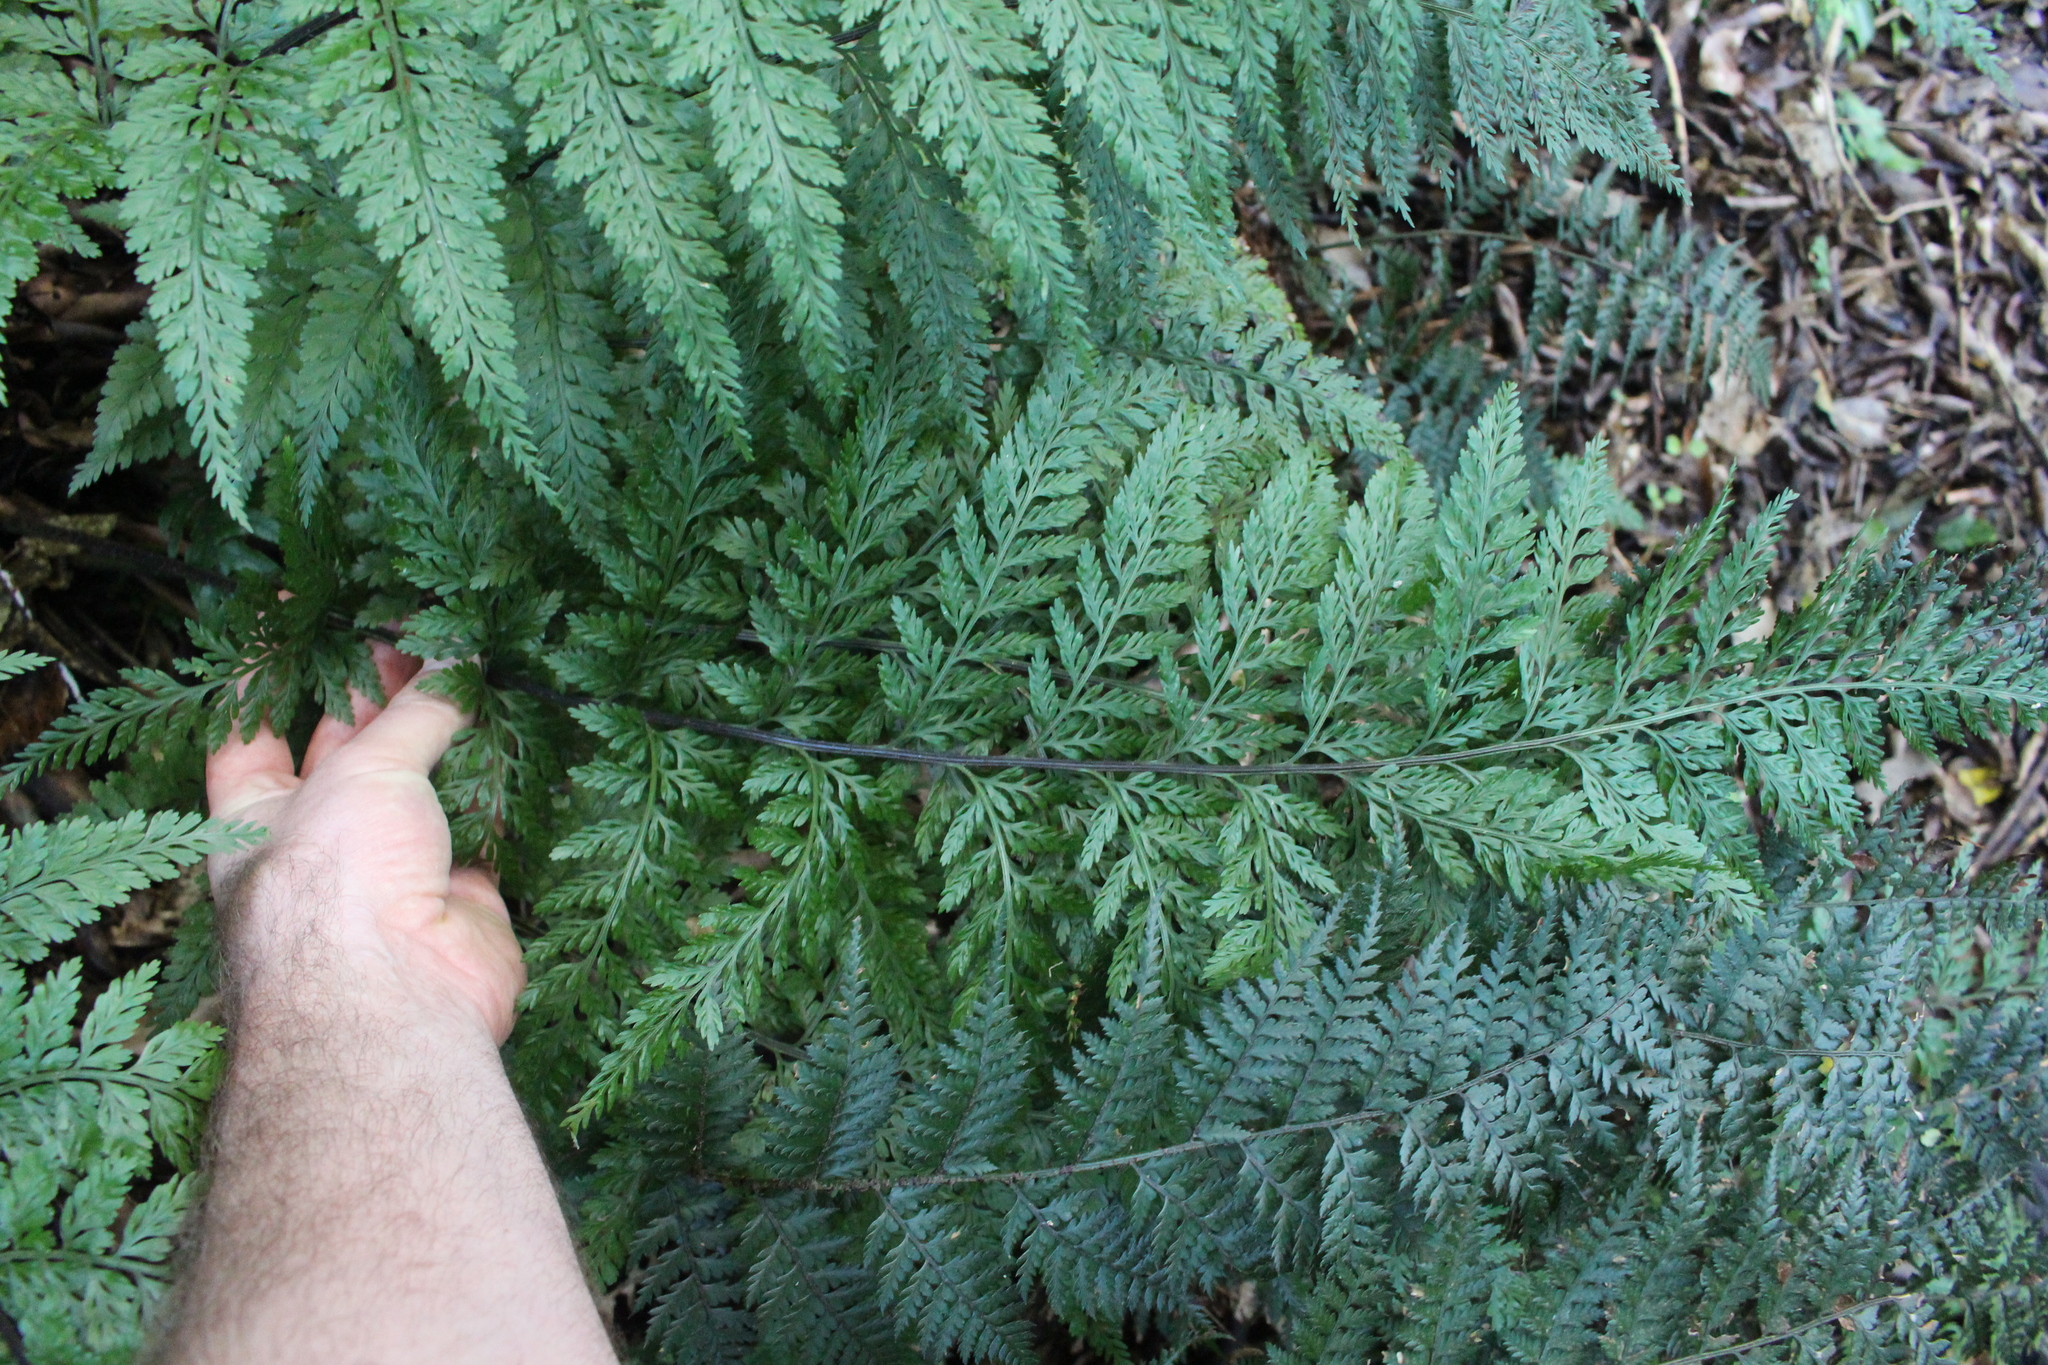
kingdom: Plantae
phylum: Tracheophyta
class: Polypodiopsida
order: Polypodiales
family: Aspleniaceae
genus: Asplenium
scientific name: Asplenium
